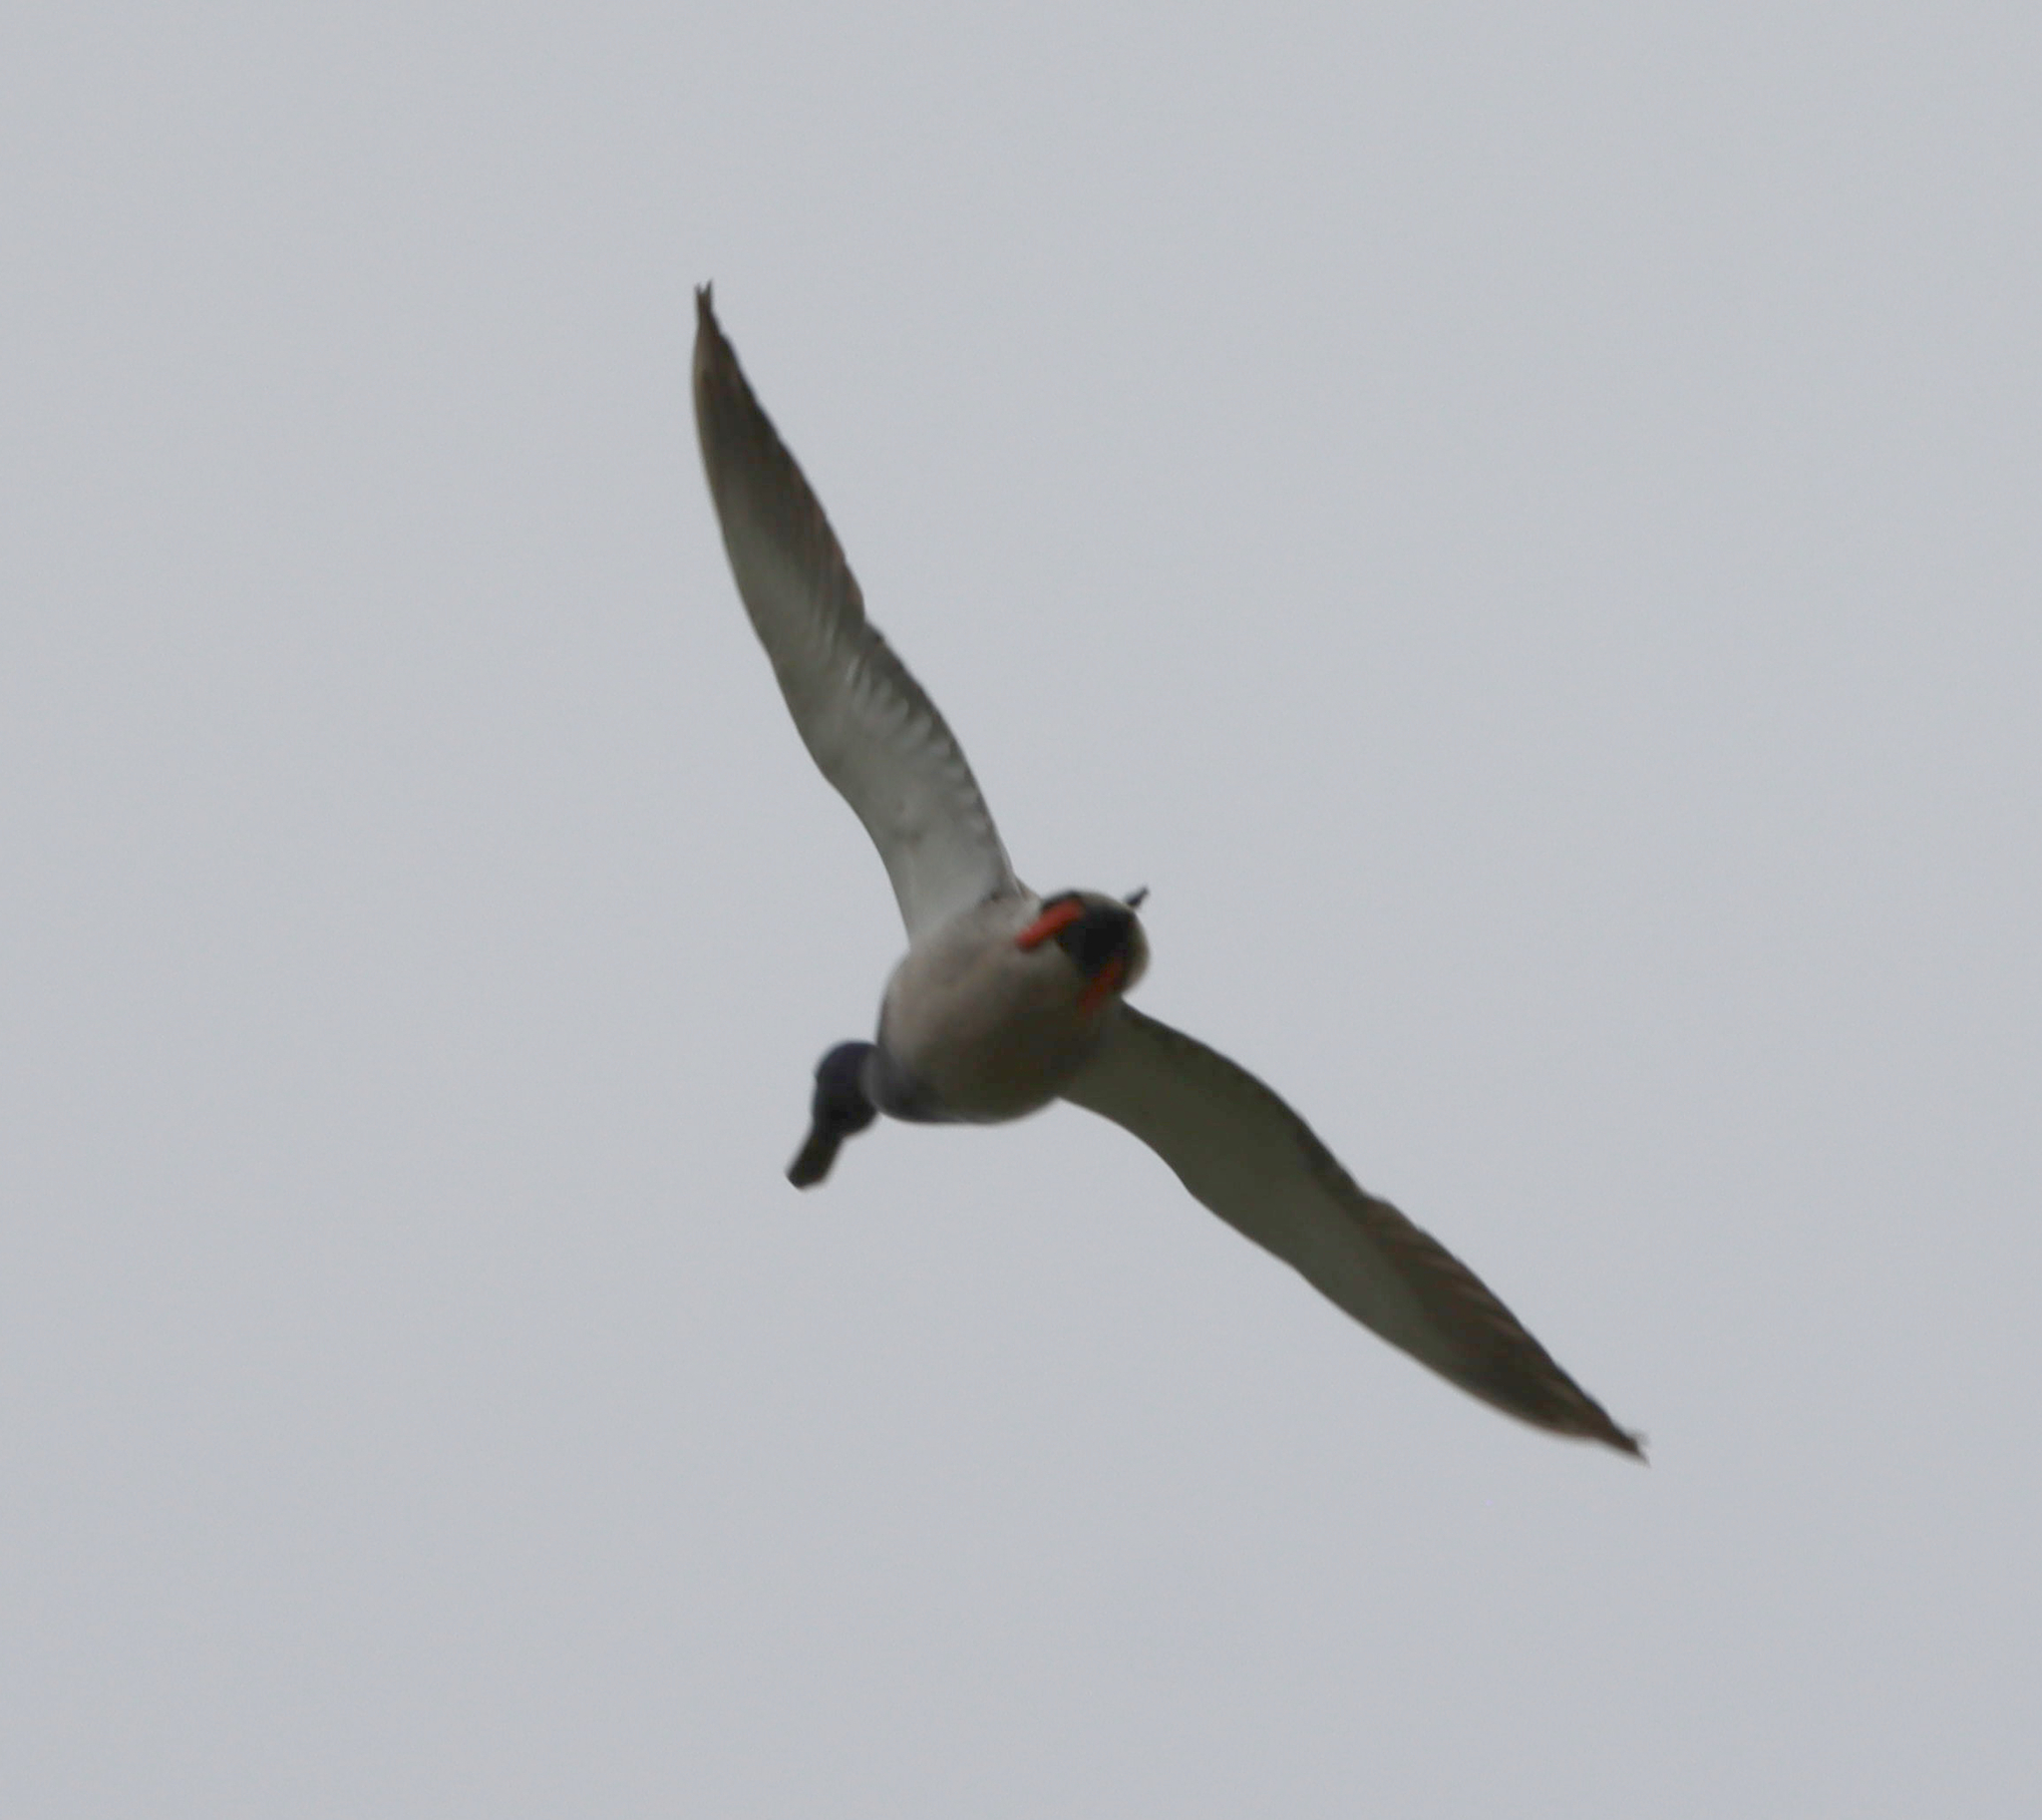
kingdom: Animalia
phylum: Chordata
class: Aves
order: Anseriformes
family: Anatidae
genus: Anas
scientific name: Anas platyrhynchos
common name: Mallard
